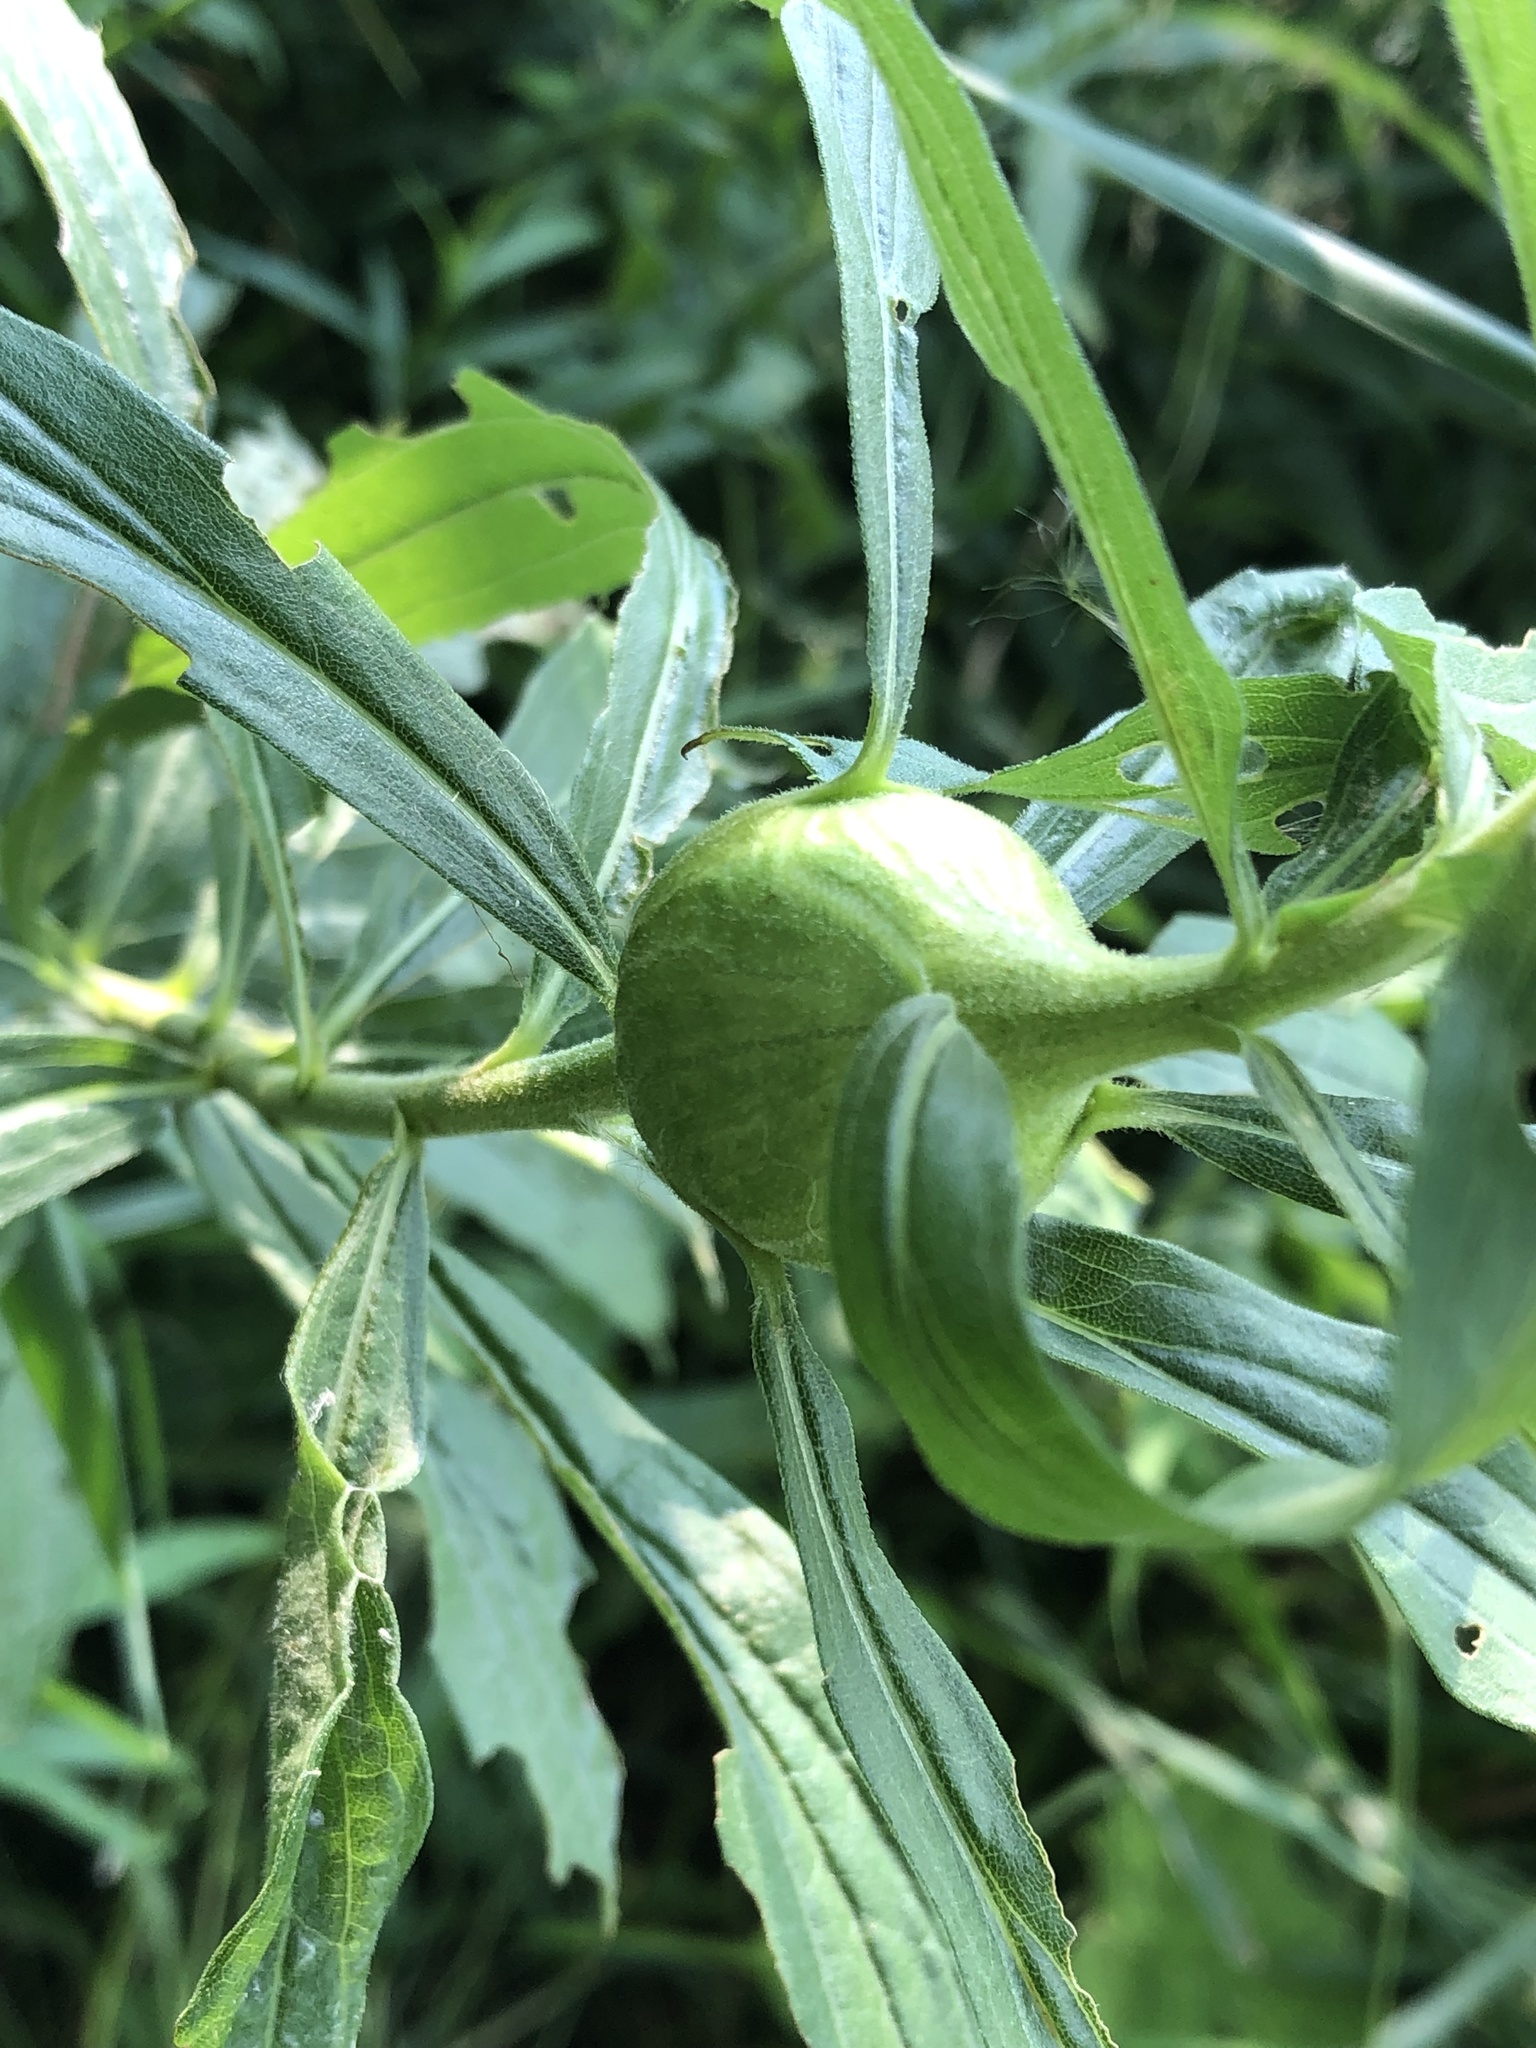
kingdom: Animalia
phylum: Arthropoda
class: Insecta
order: Diptera
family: Tephritidae
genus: Eurosta
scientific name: Eurosta solidaginis
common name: Goldenrod gall fly
